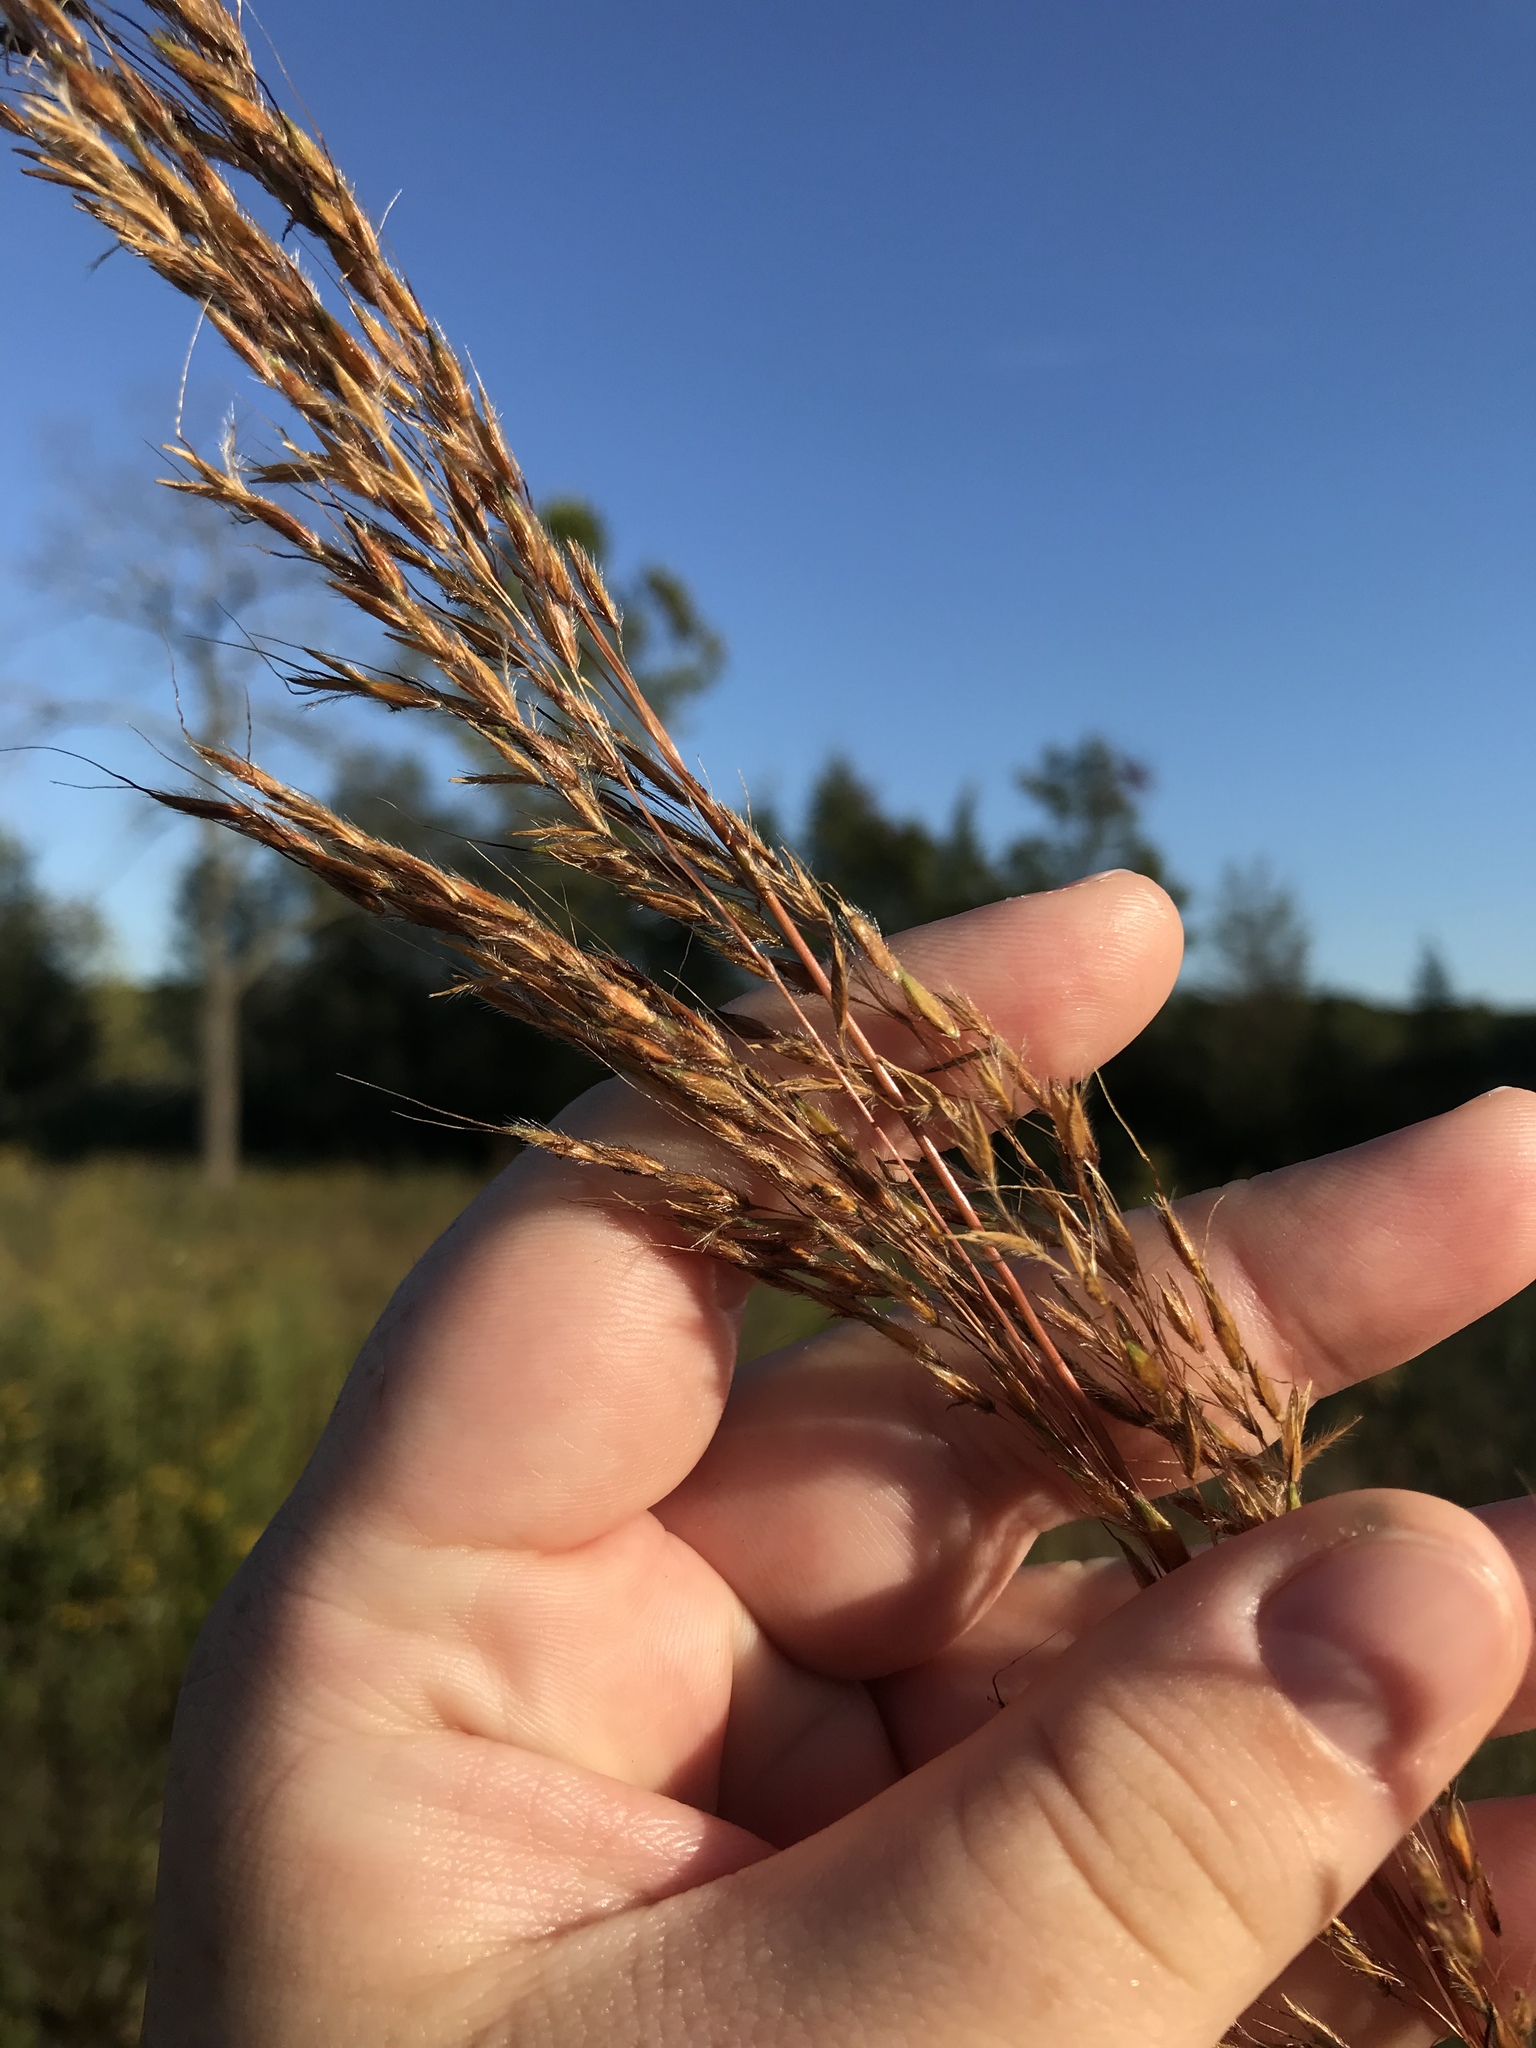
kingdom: Plantae
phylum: Tracheophyta
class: Liliopsida
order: Poales
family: Poaceae
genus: Sorghastrum
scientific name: Sorghastrum nutans
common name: Indian grass
